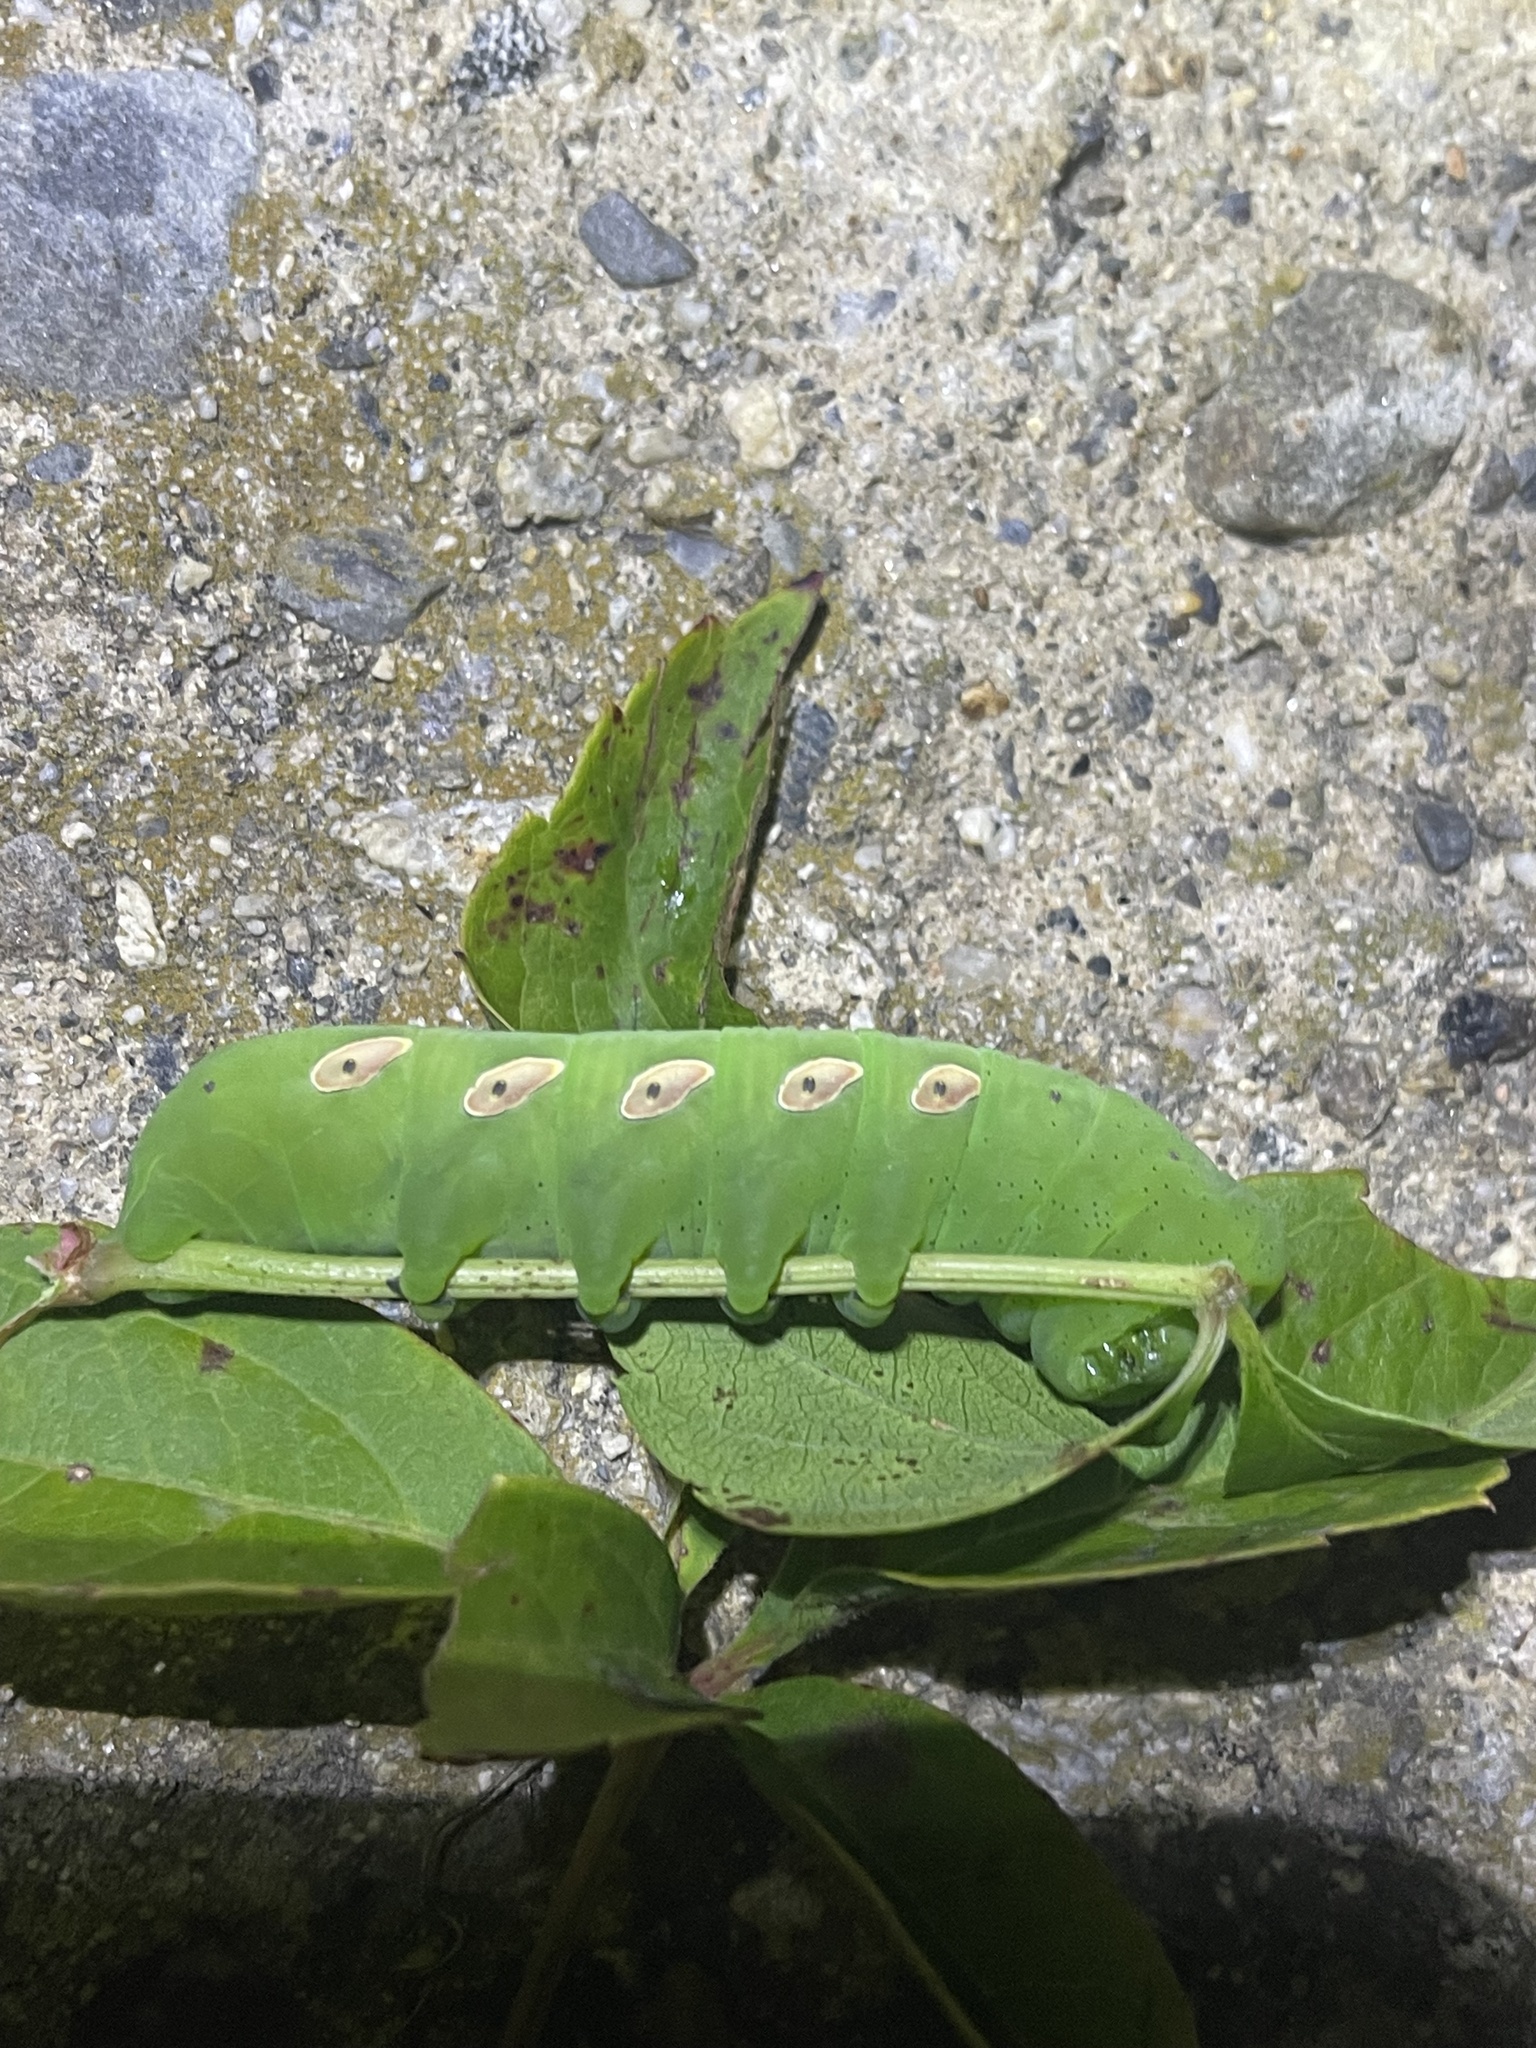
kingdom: Animalia
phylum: Arthropoda
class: Insecta
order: Lepidoptera
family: Sphingidae
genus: Eumorpha
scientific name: Eumorpha pandorus
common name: Pandora sphinx
